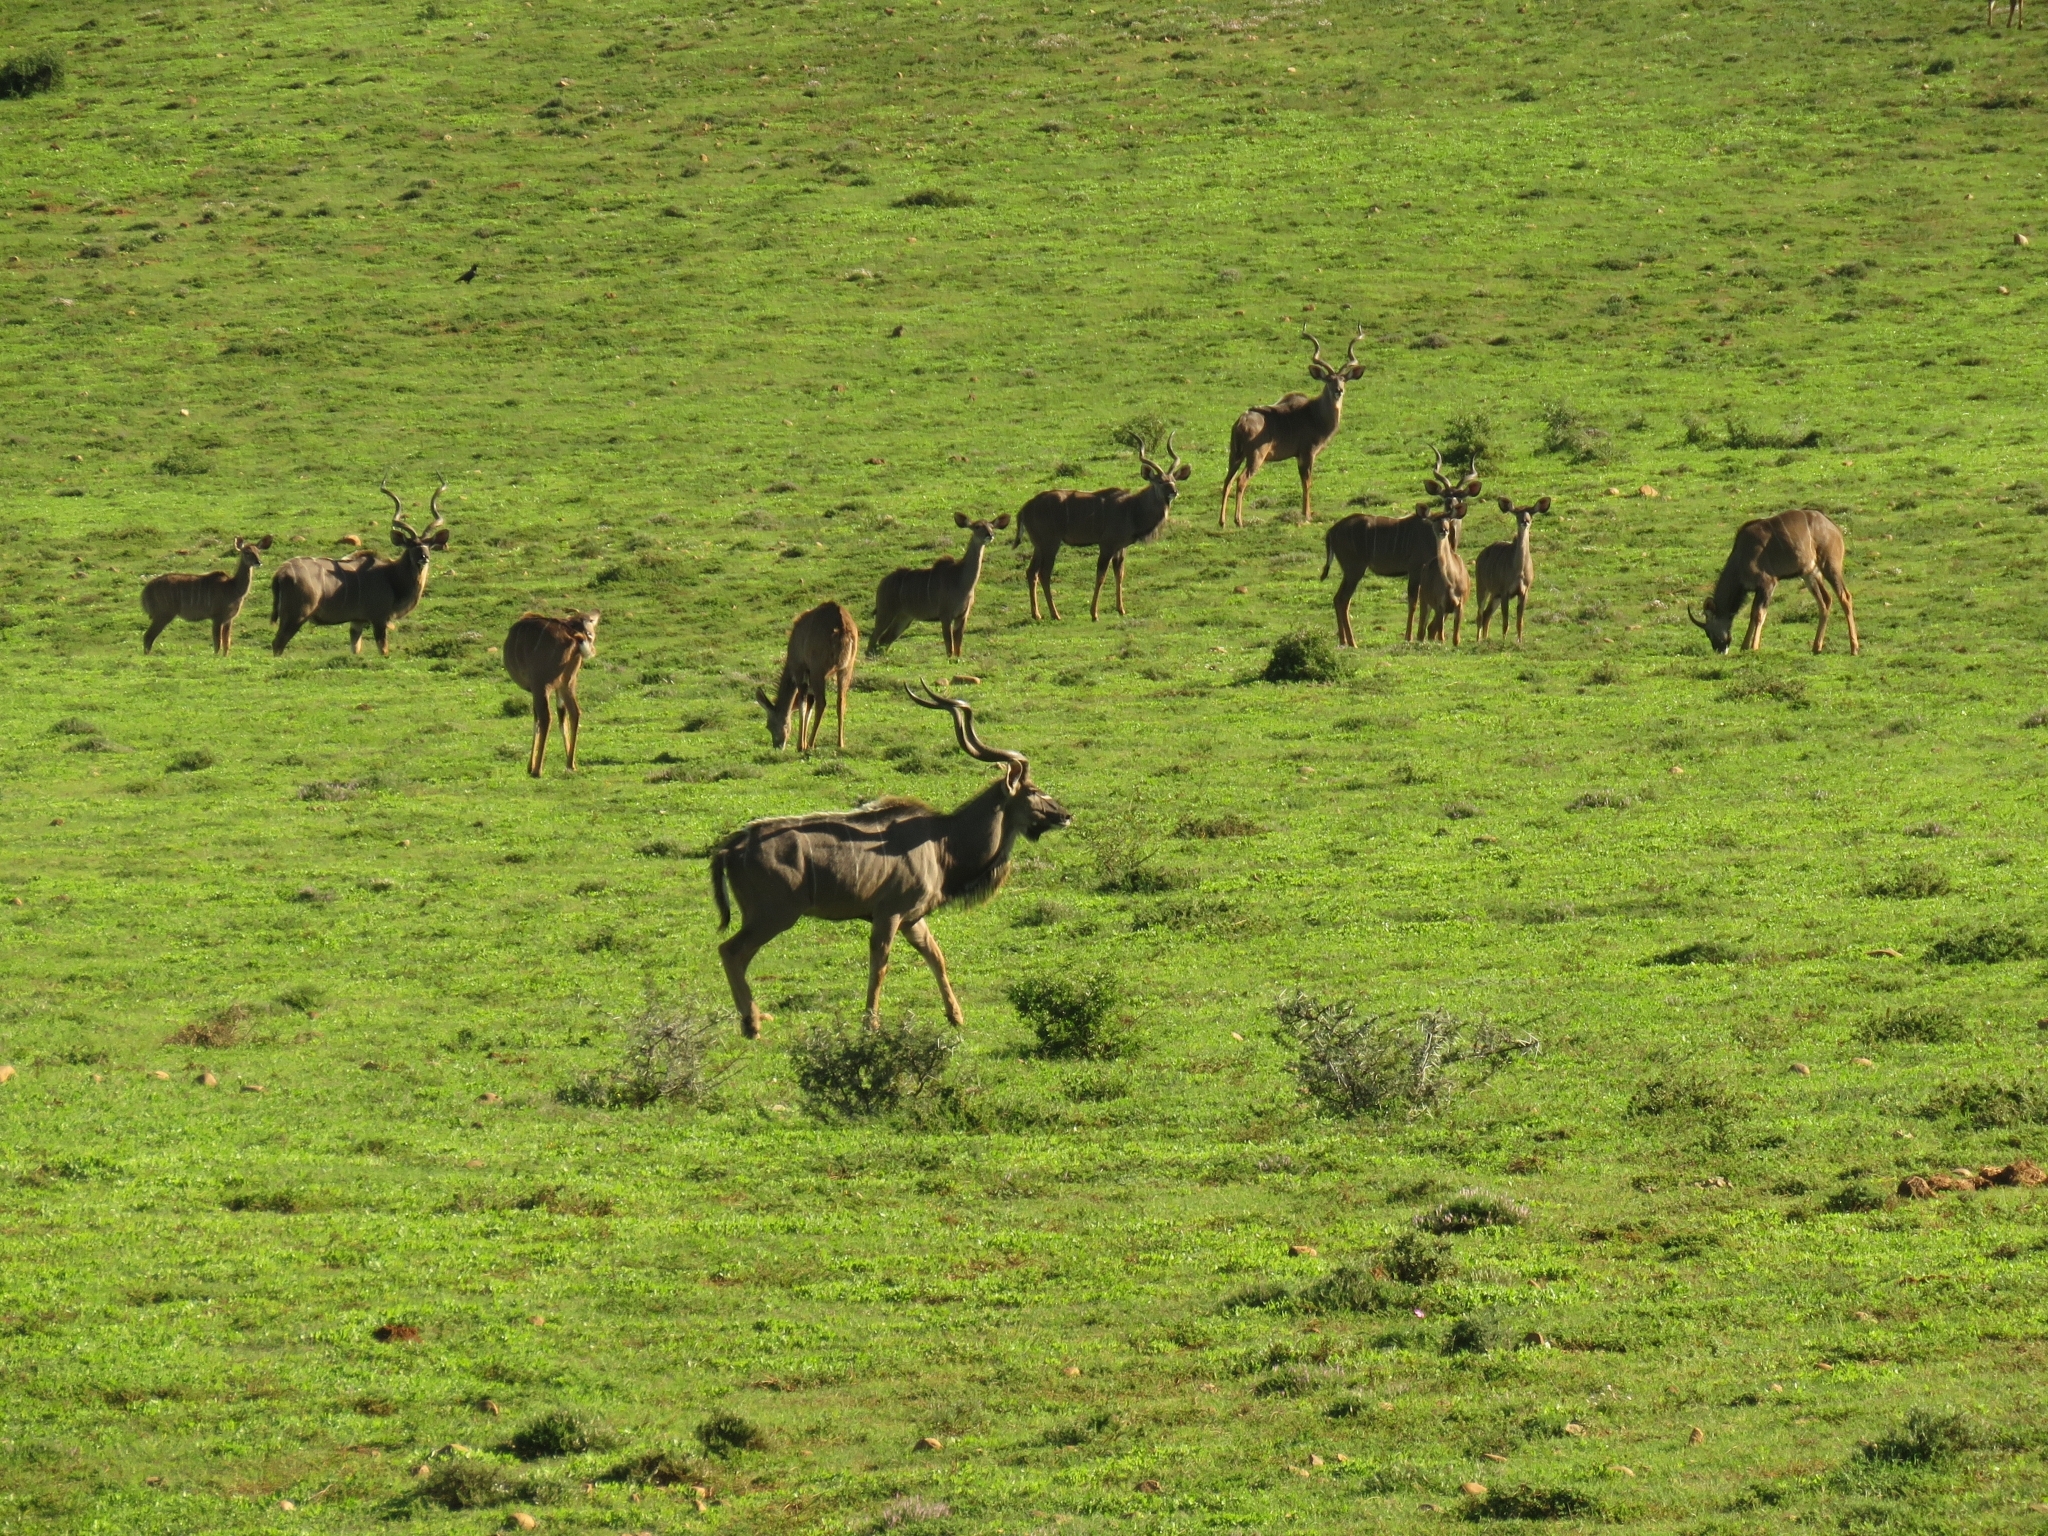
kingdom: Animalia
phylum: Chordata
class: Mammalia
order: Artiodactyla
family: Bovidae
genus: Tragelaphus
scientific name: Tragelaphus strepsiceros
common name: Greater kudu
